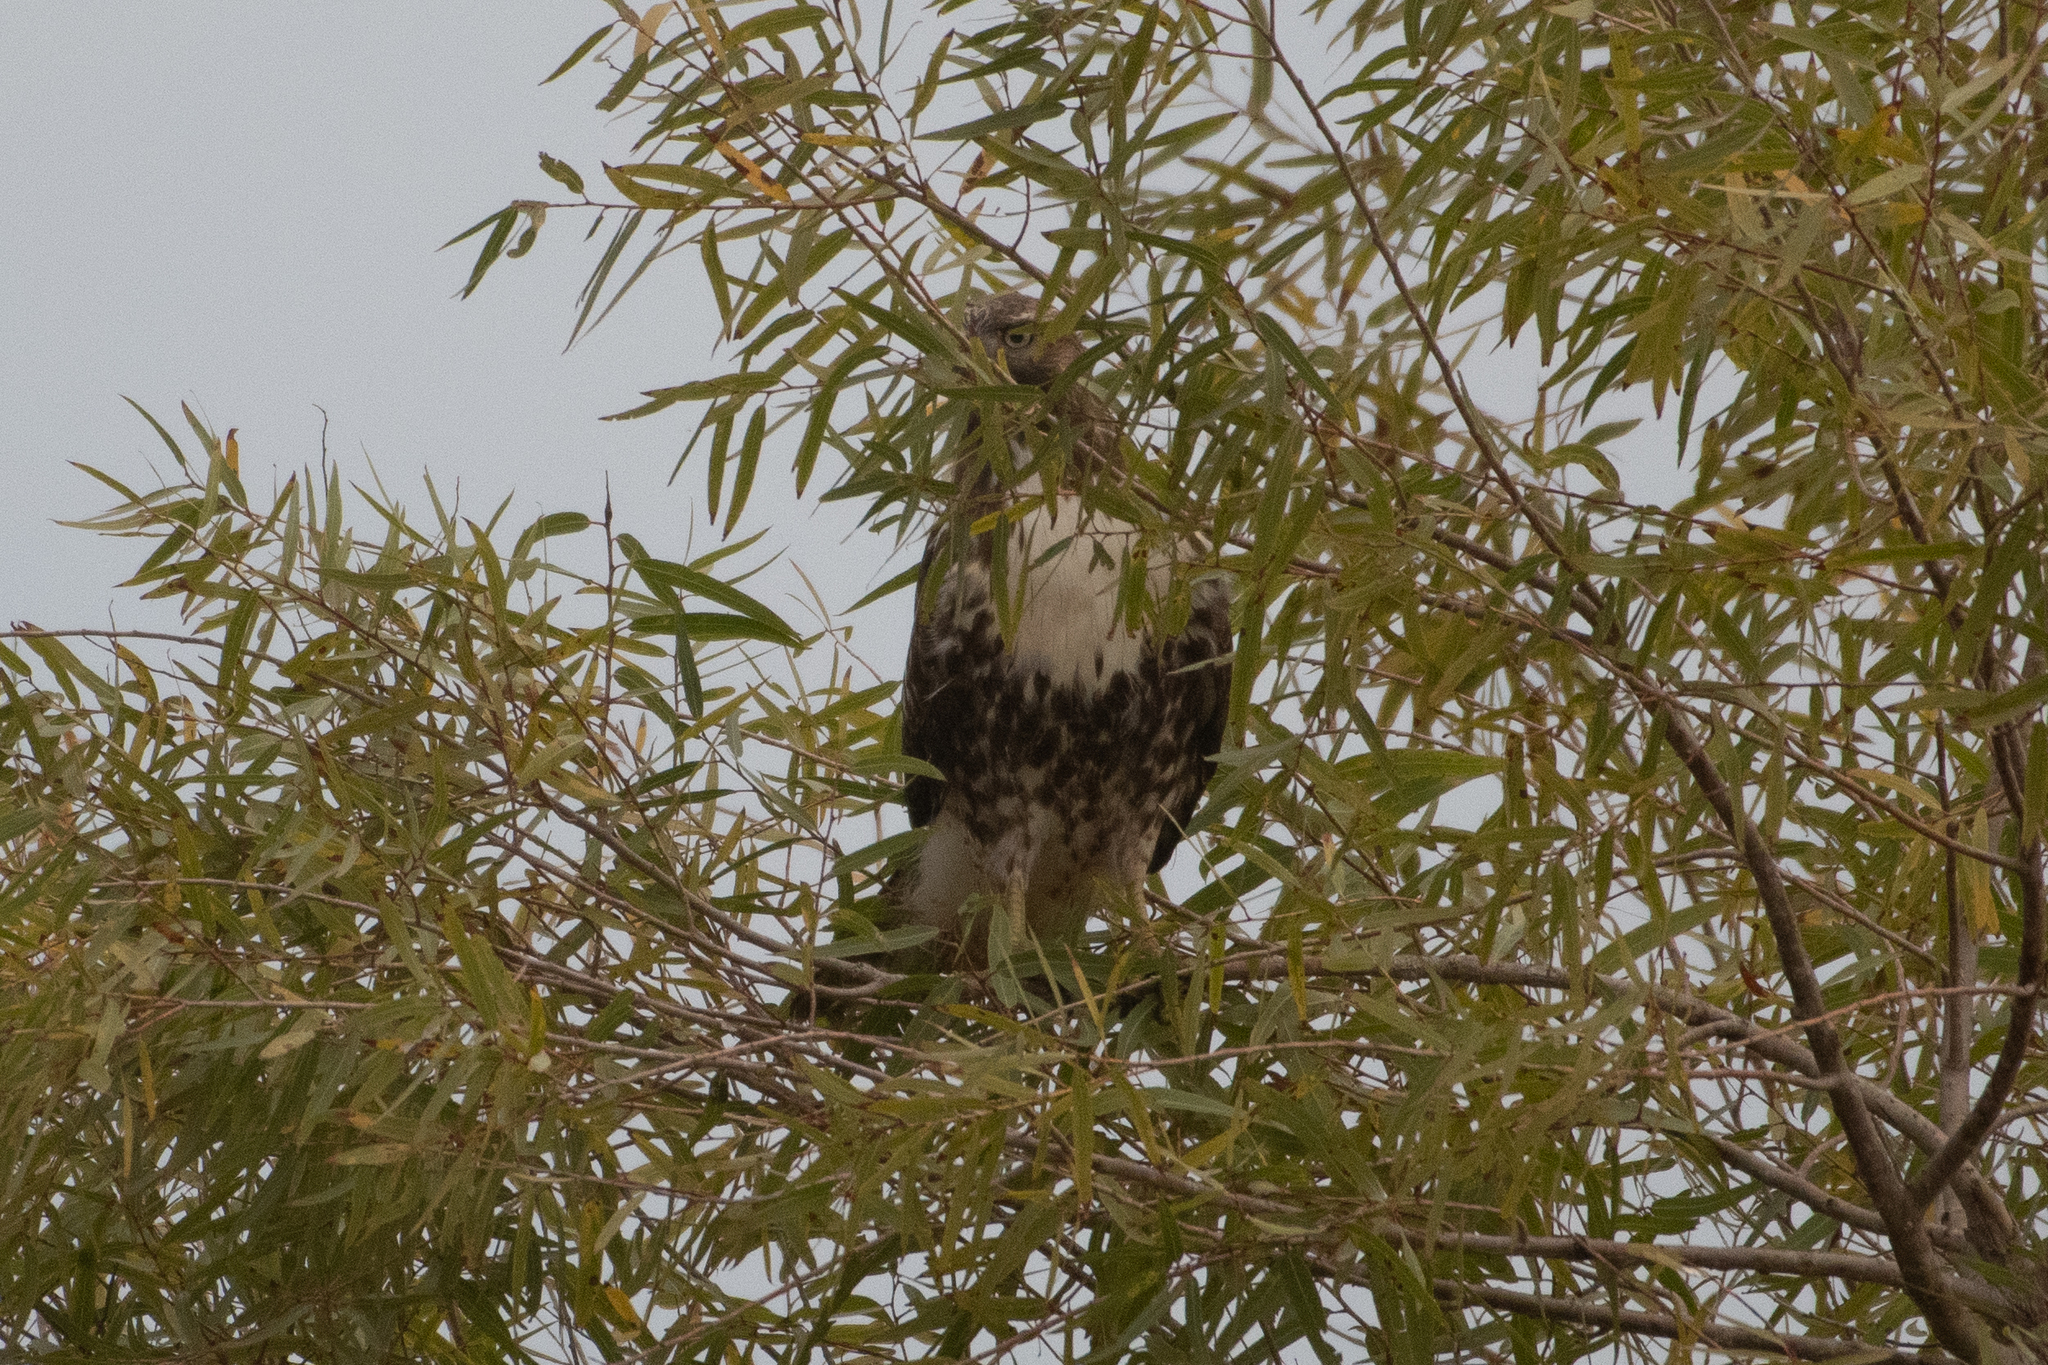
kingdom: Animalia
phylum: Chordata
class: Aves
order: Accipitriformes
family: Accipitridae
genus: Buteo
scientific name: Buteo jamaicensis
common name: Red-tailed hawk
